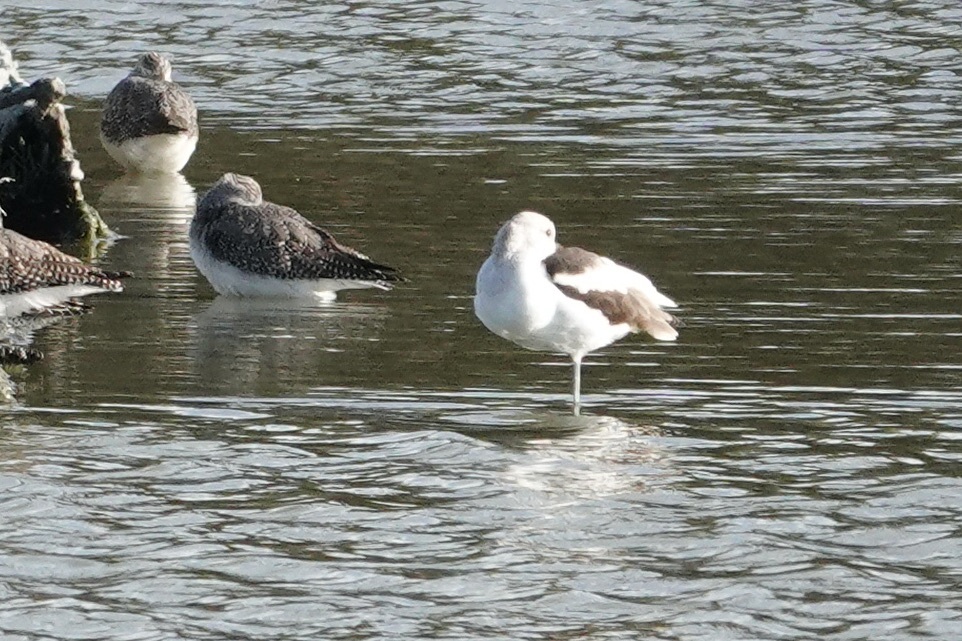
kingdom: Animalia
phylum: Chordata
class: Aves
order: Charadriiformes
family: Recurvirostridae
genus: Recurvirostra
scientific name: Recurvirostra americana
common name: American avocet
